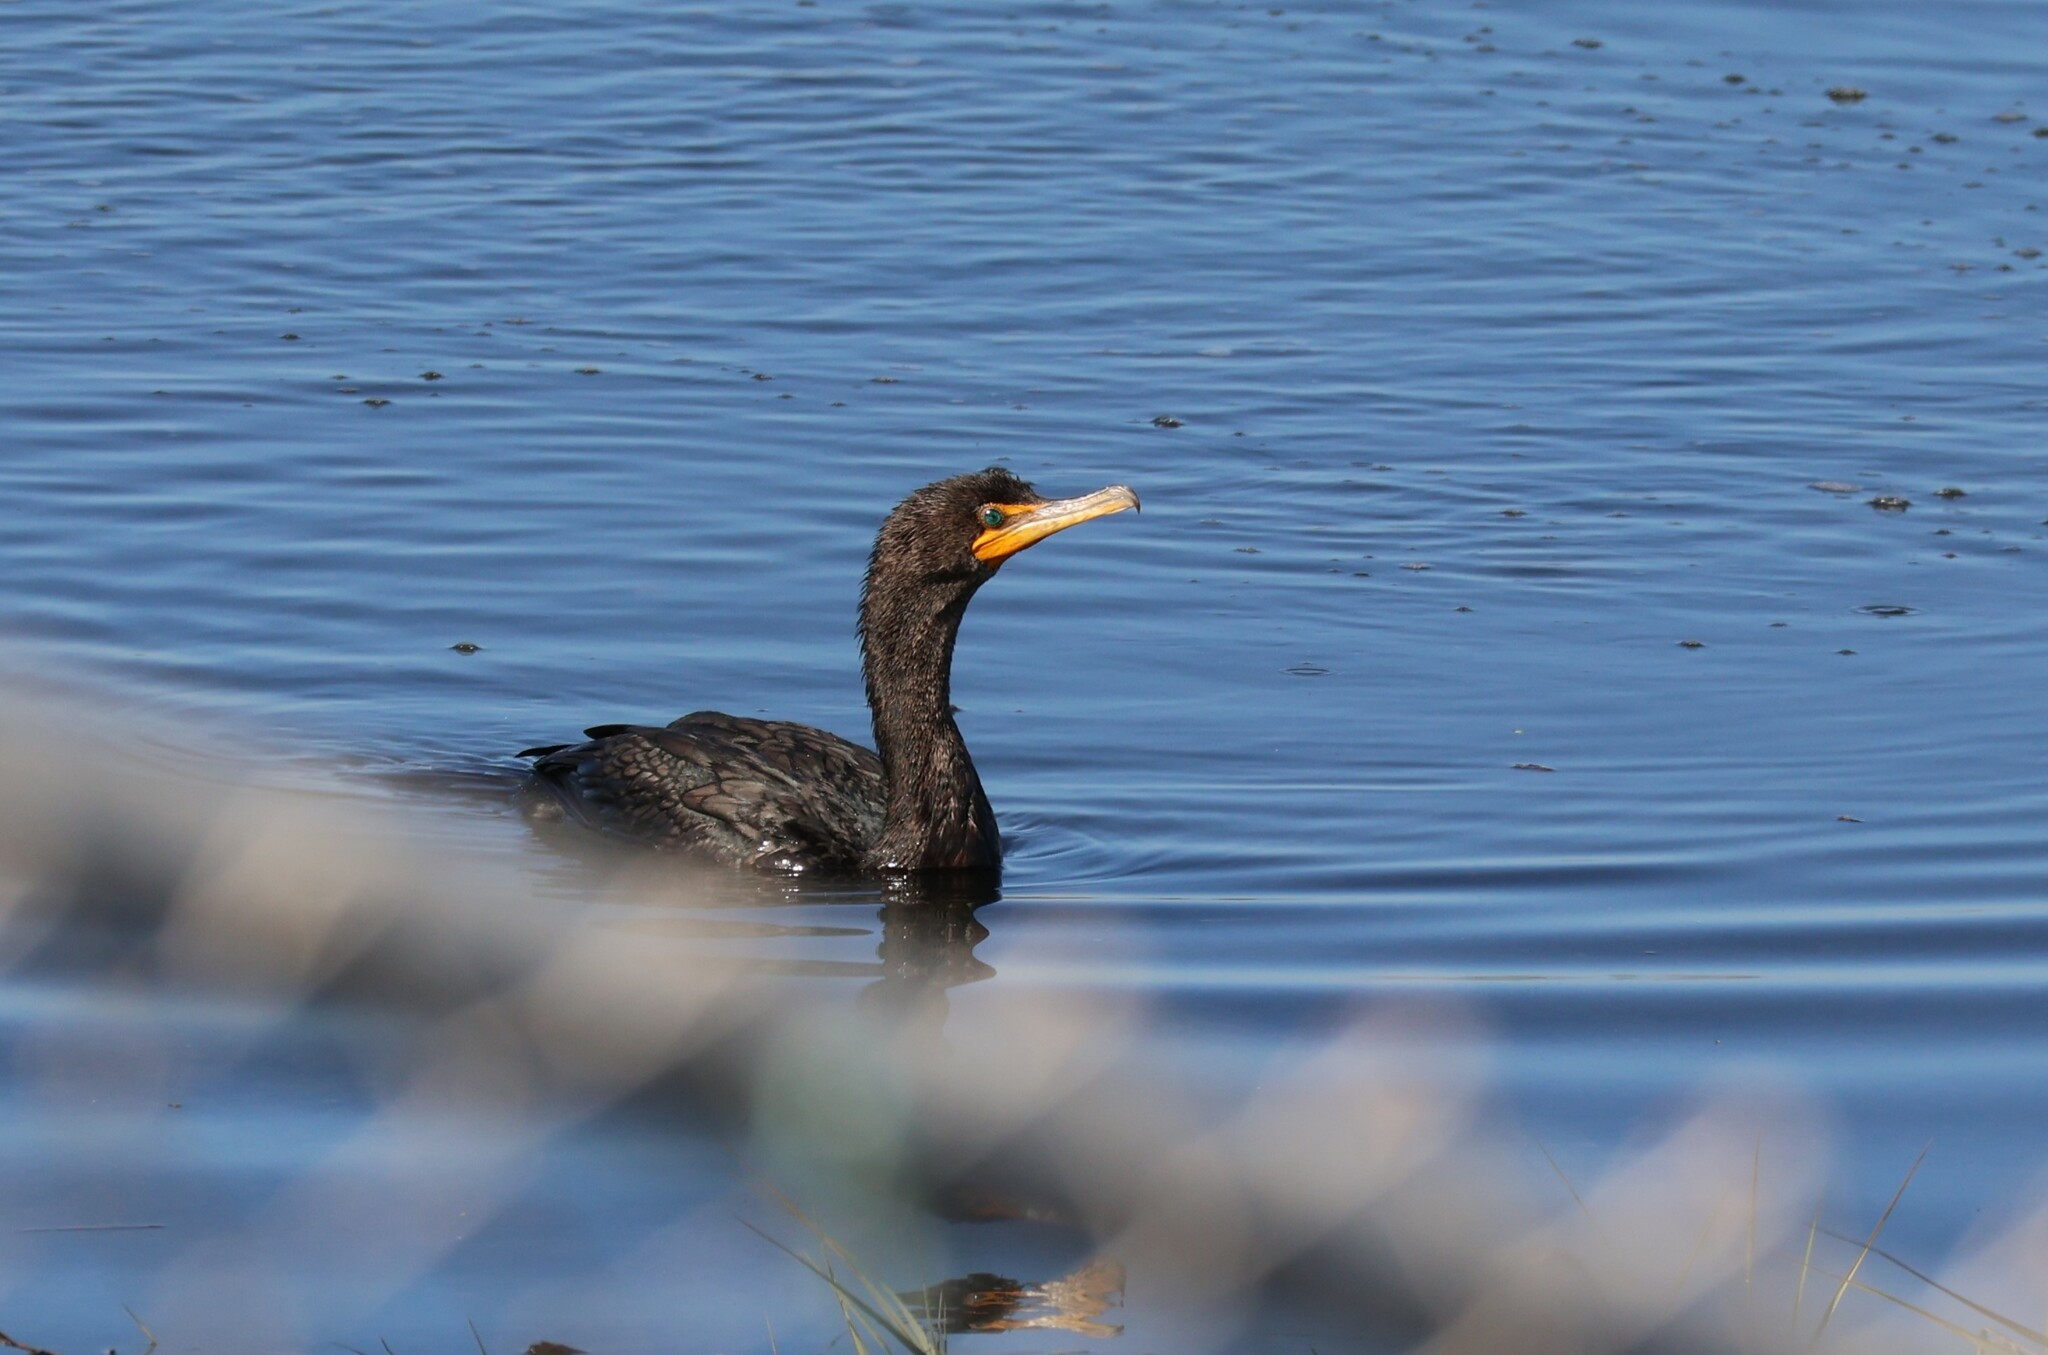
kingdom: Animalia
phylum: Chordata
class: Aves
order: Suliformes
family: Phalacrocoracidae
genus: Phalacrocorax
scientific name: Phalacrocorax auritus
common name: Double-crested cormorant
